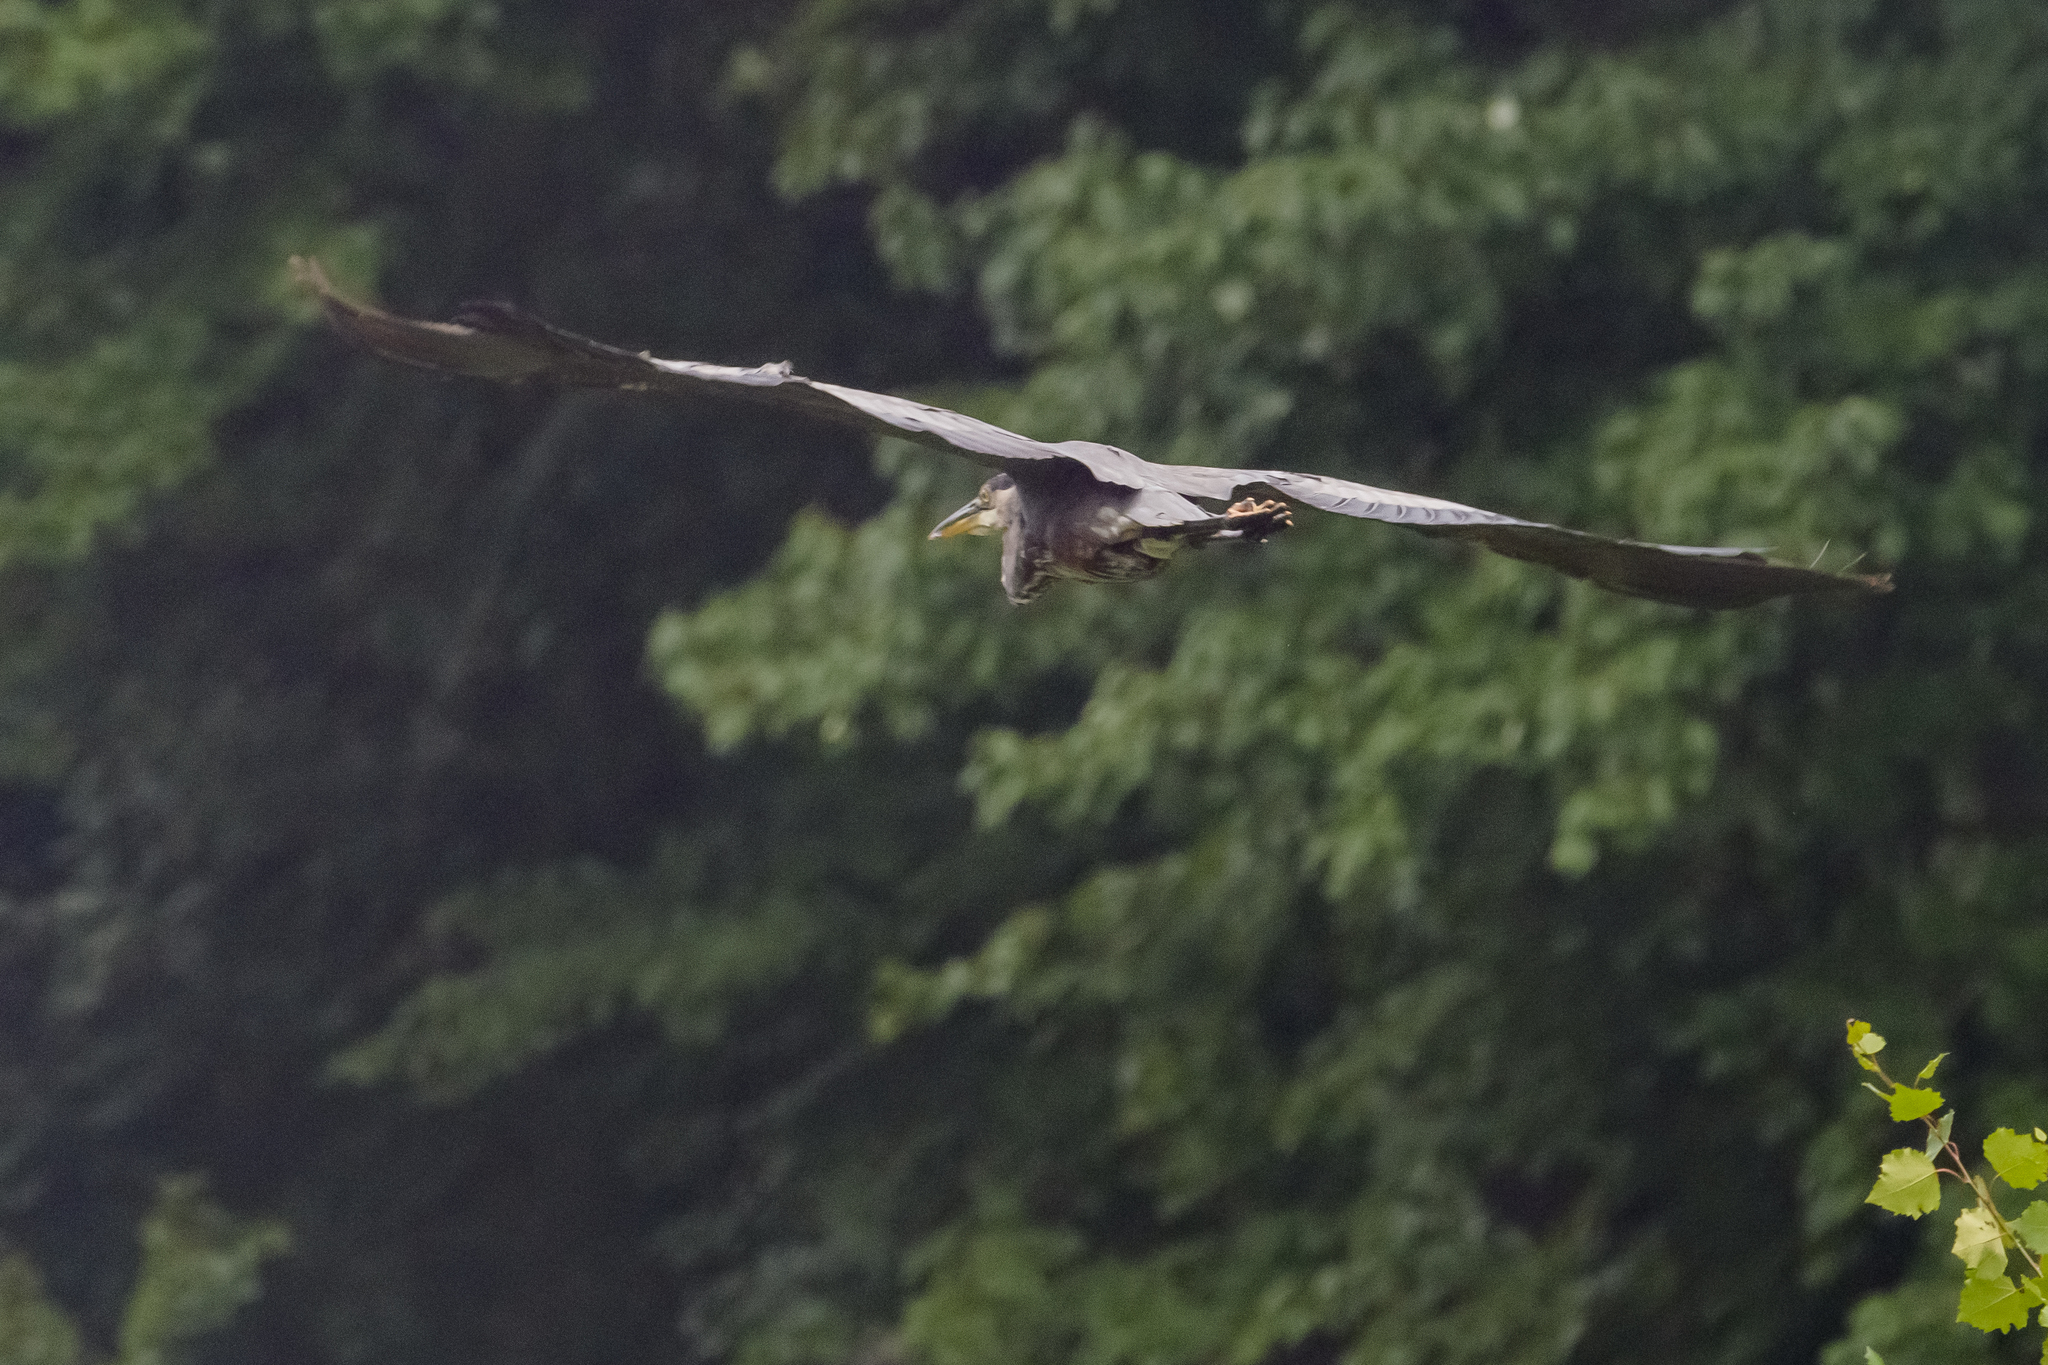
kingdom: Animalia
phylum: Chordata
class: Aves
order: Pelecaniformes
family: Ardeidae
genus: Ardea
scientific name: Ardea herodias
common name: Great blue heron
